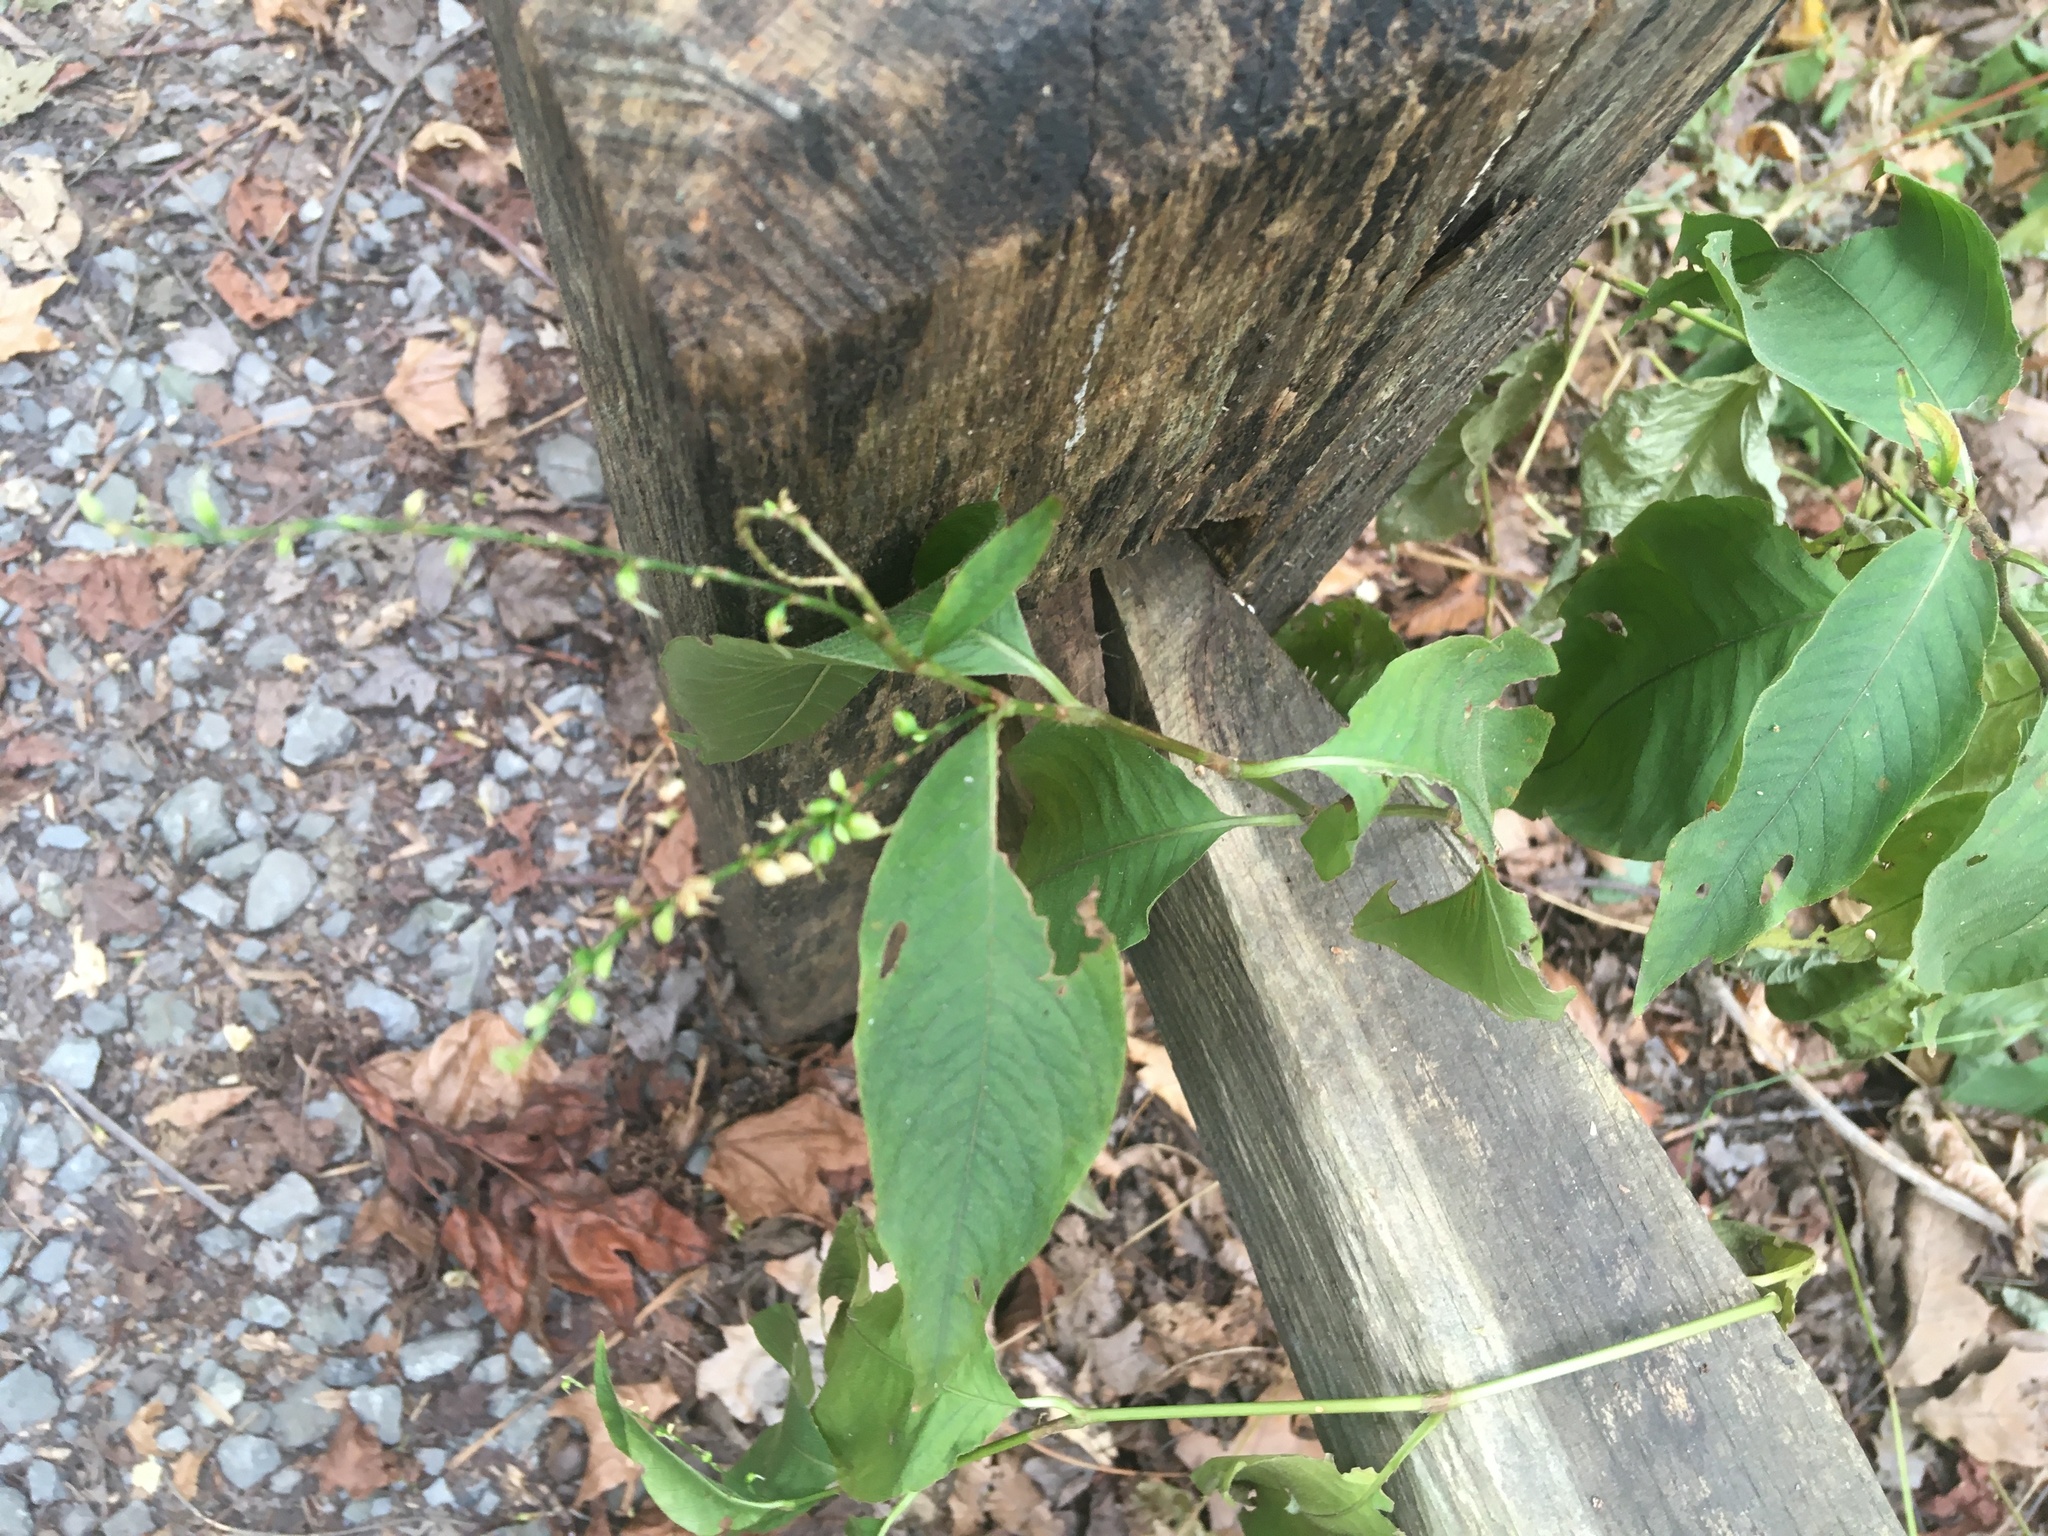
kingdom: Plantae
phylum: Tracheophyta
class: Magnoliopsida
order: Caryophyllales
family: Polygonaceae
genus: Persicaria
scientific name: Persicaria virginiana
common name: Jumpseed
